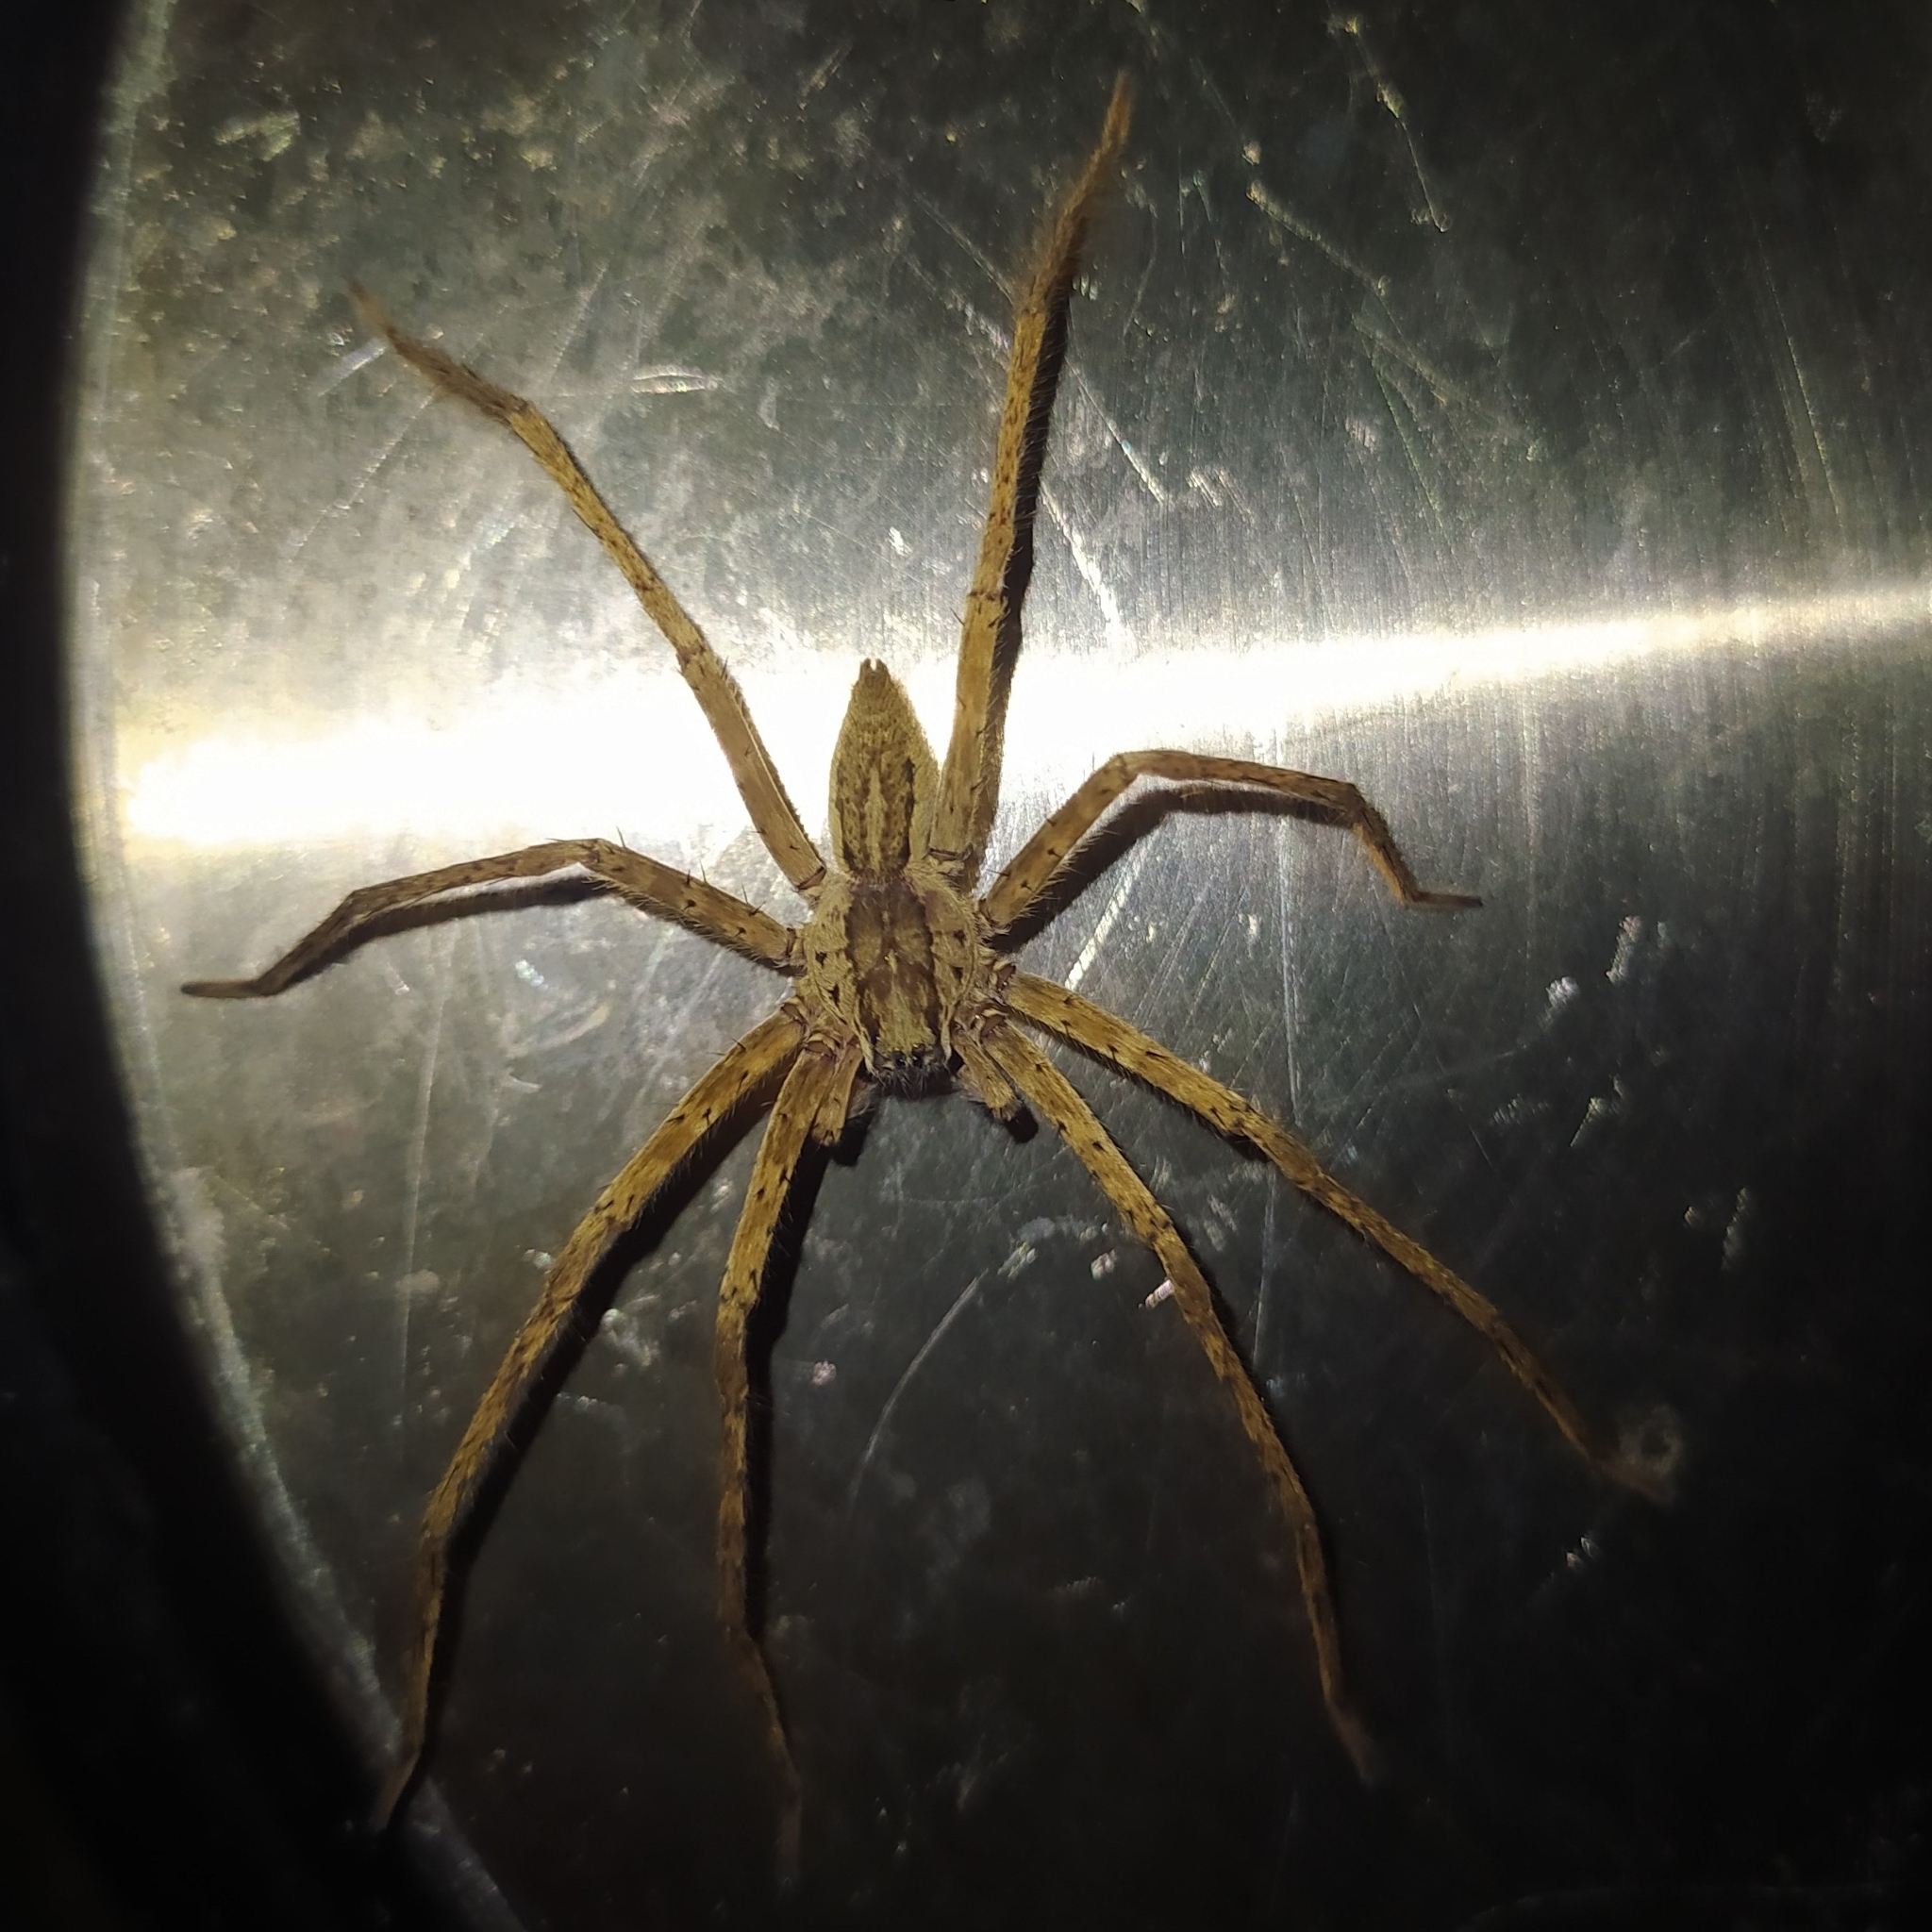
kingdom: Animalia
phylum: Arthropoda
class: Arachnida
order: Araneae
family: Trechaleidae
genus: Cupiennius
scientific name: Cupiennius bimaculatus
